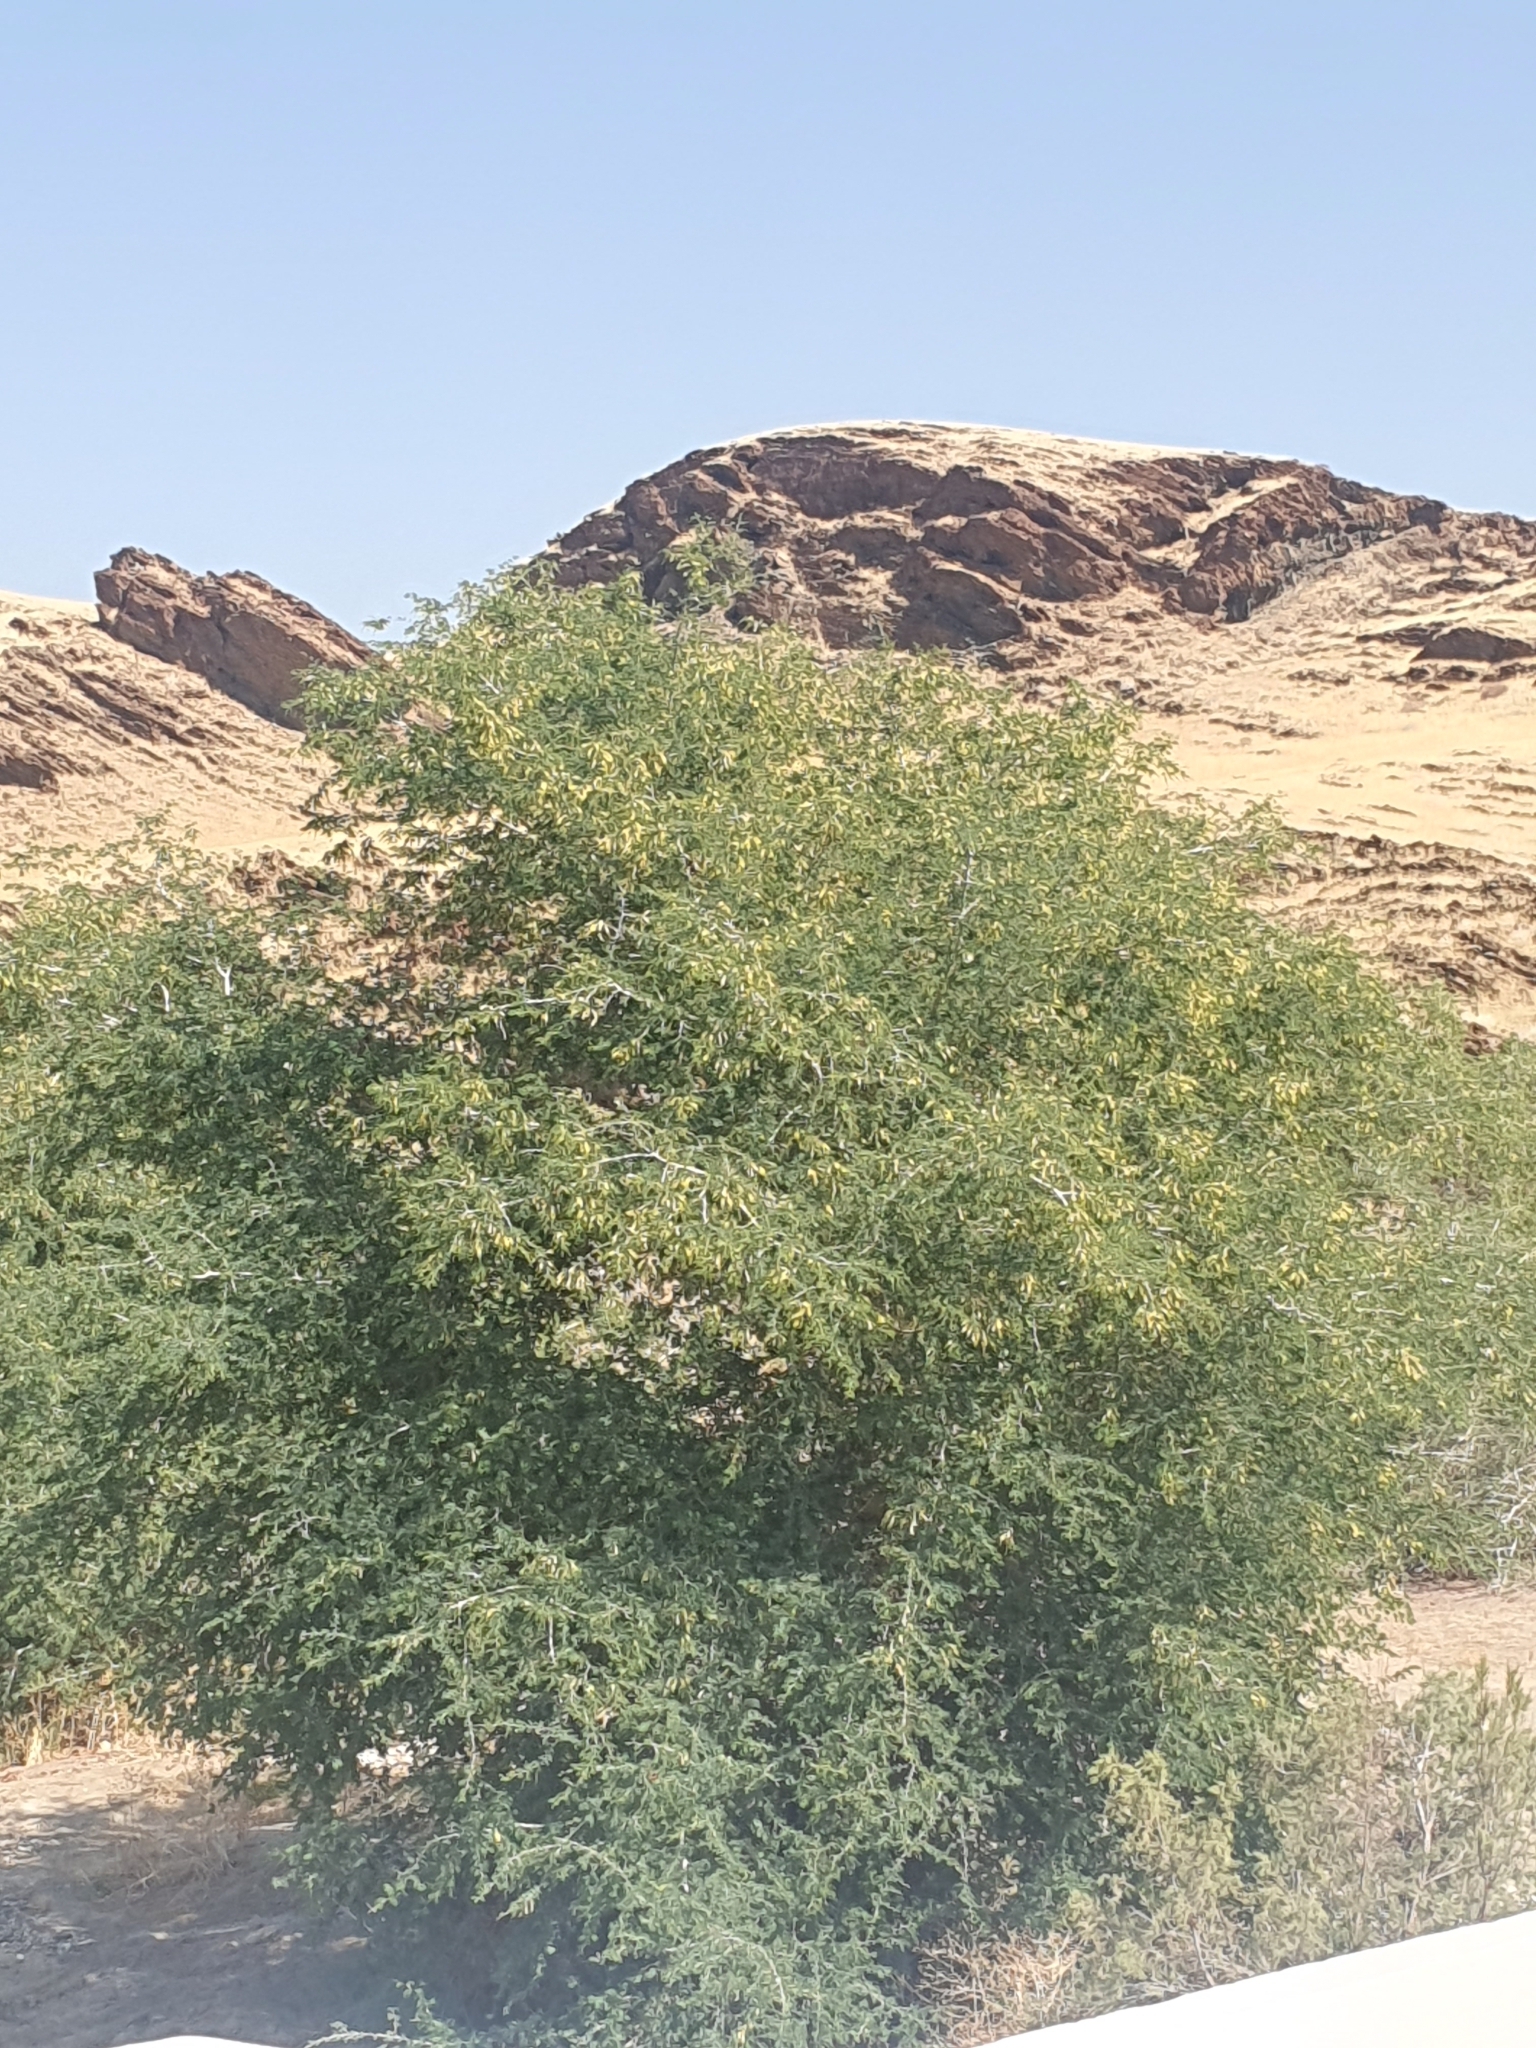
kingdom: Plantae
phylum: Tracheophyta
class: Magnoliopsida
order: Fabales
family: Fabaceae
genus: Faidherbia
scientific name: Faidherbia albida
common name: Anatree
